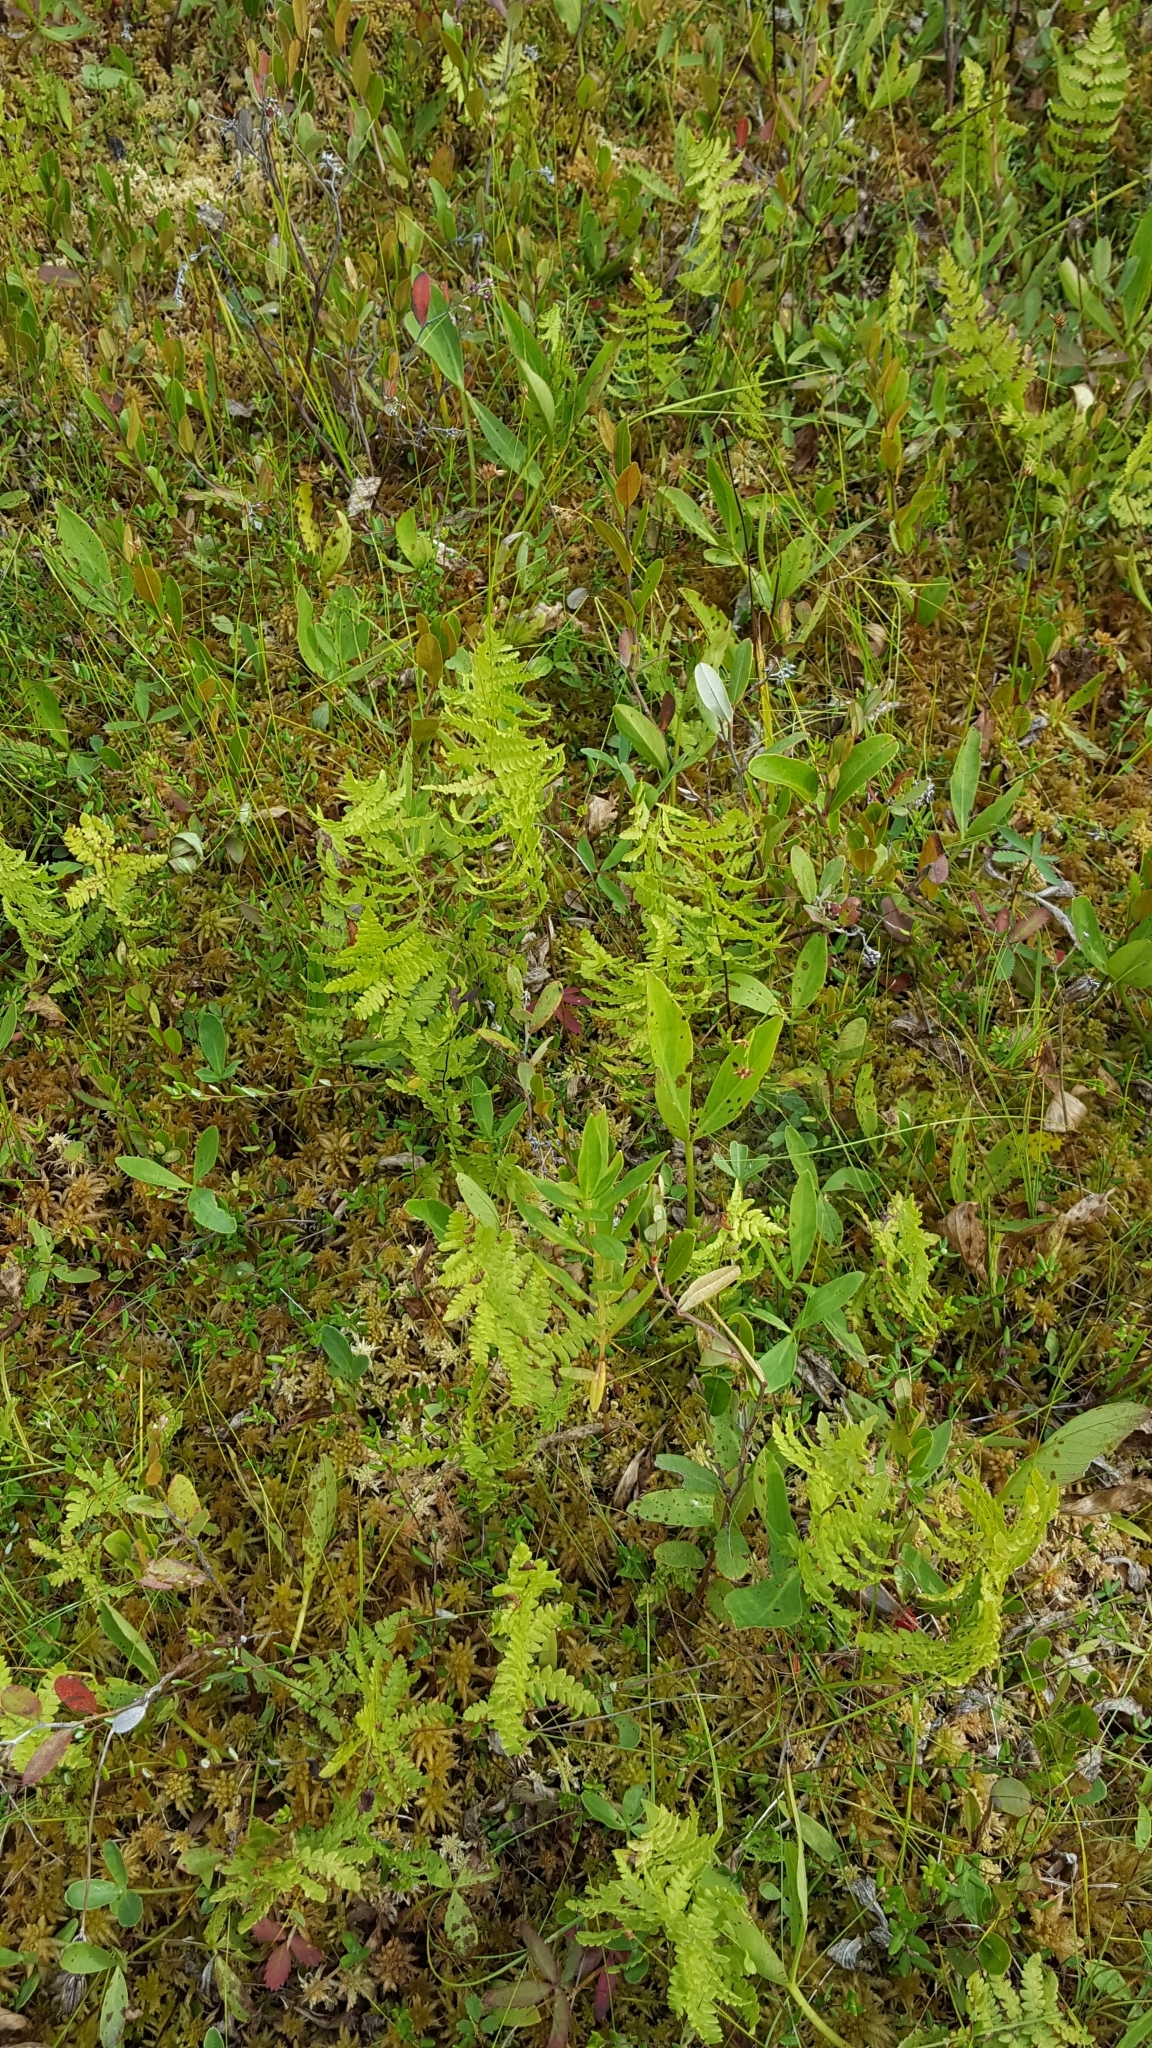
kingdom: Plantae
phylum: Tracheophyta
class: Polypodiopsida
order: Polypodiales
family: Thelypteridaceae
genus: Thelypteris
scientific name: Thelypteris palustris
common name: Marsh fern
